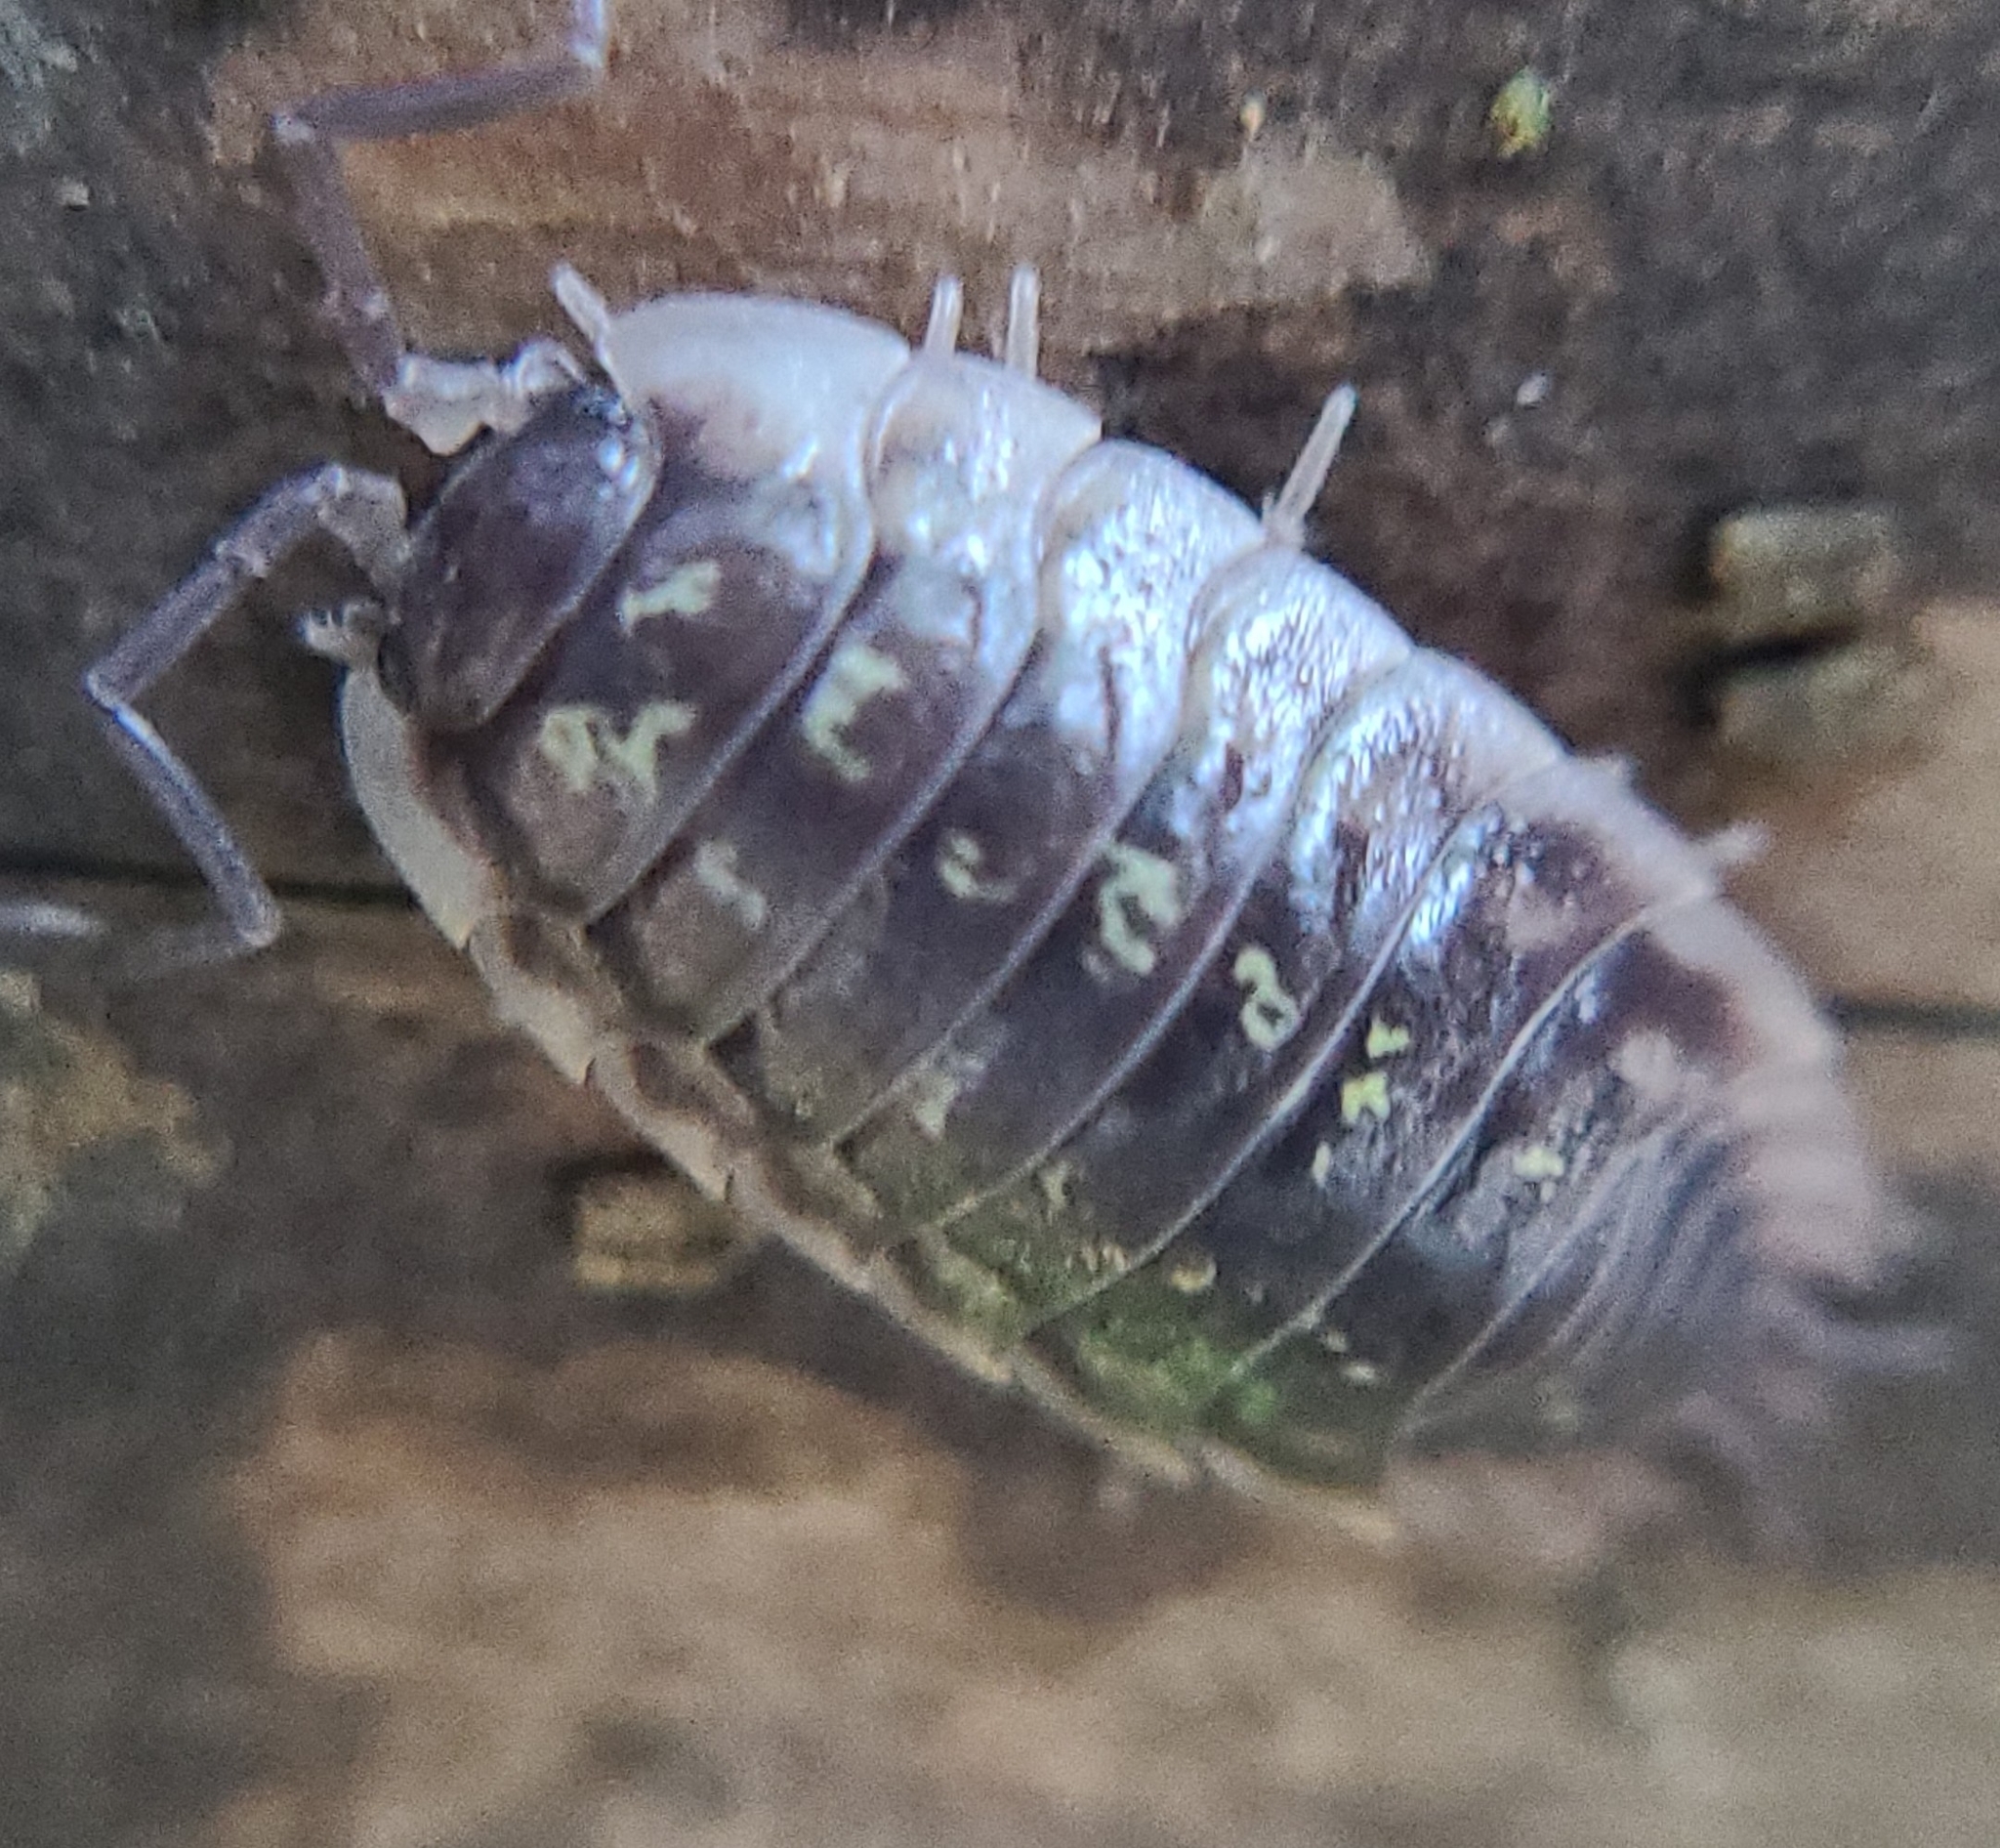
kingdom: Animalia
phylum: Arthropoda
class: Malacostraca
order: Isopoda
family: Oniscidae
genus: Oniscus
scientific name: Oniscus asellus
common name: Common shiny woodlouse
